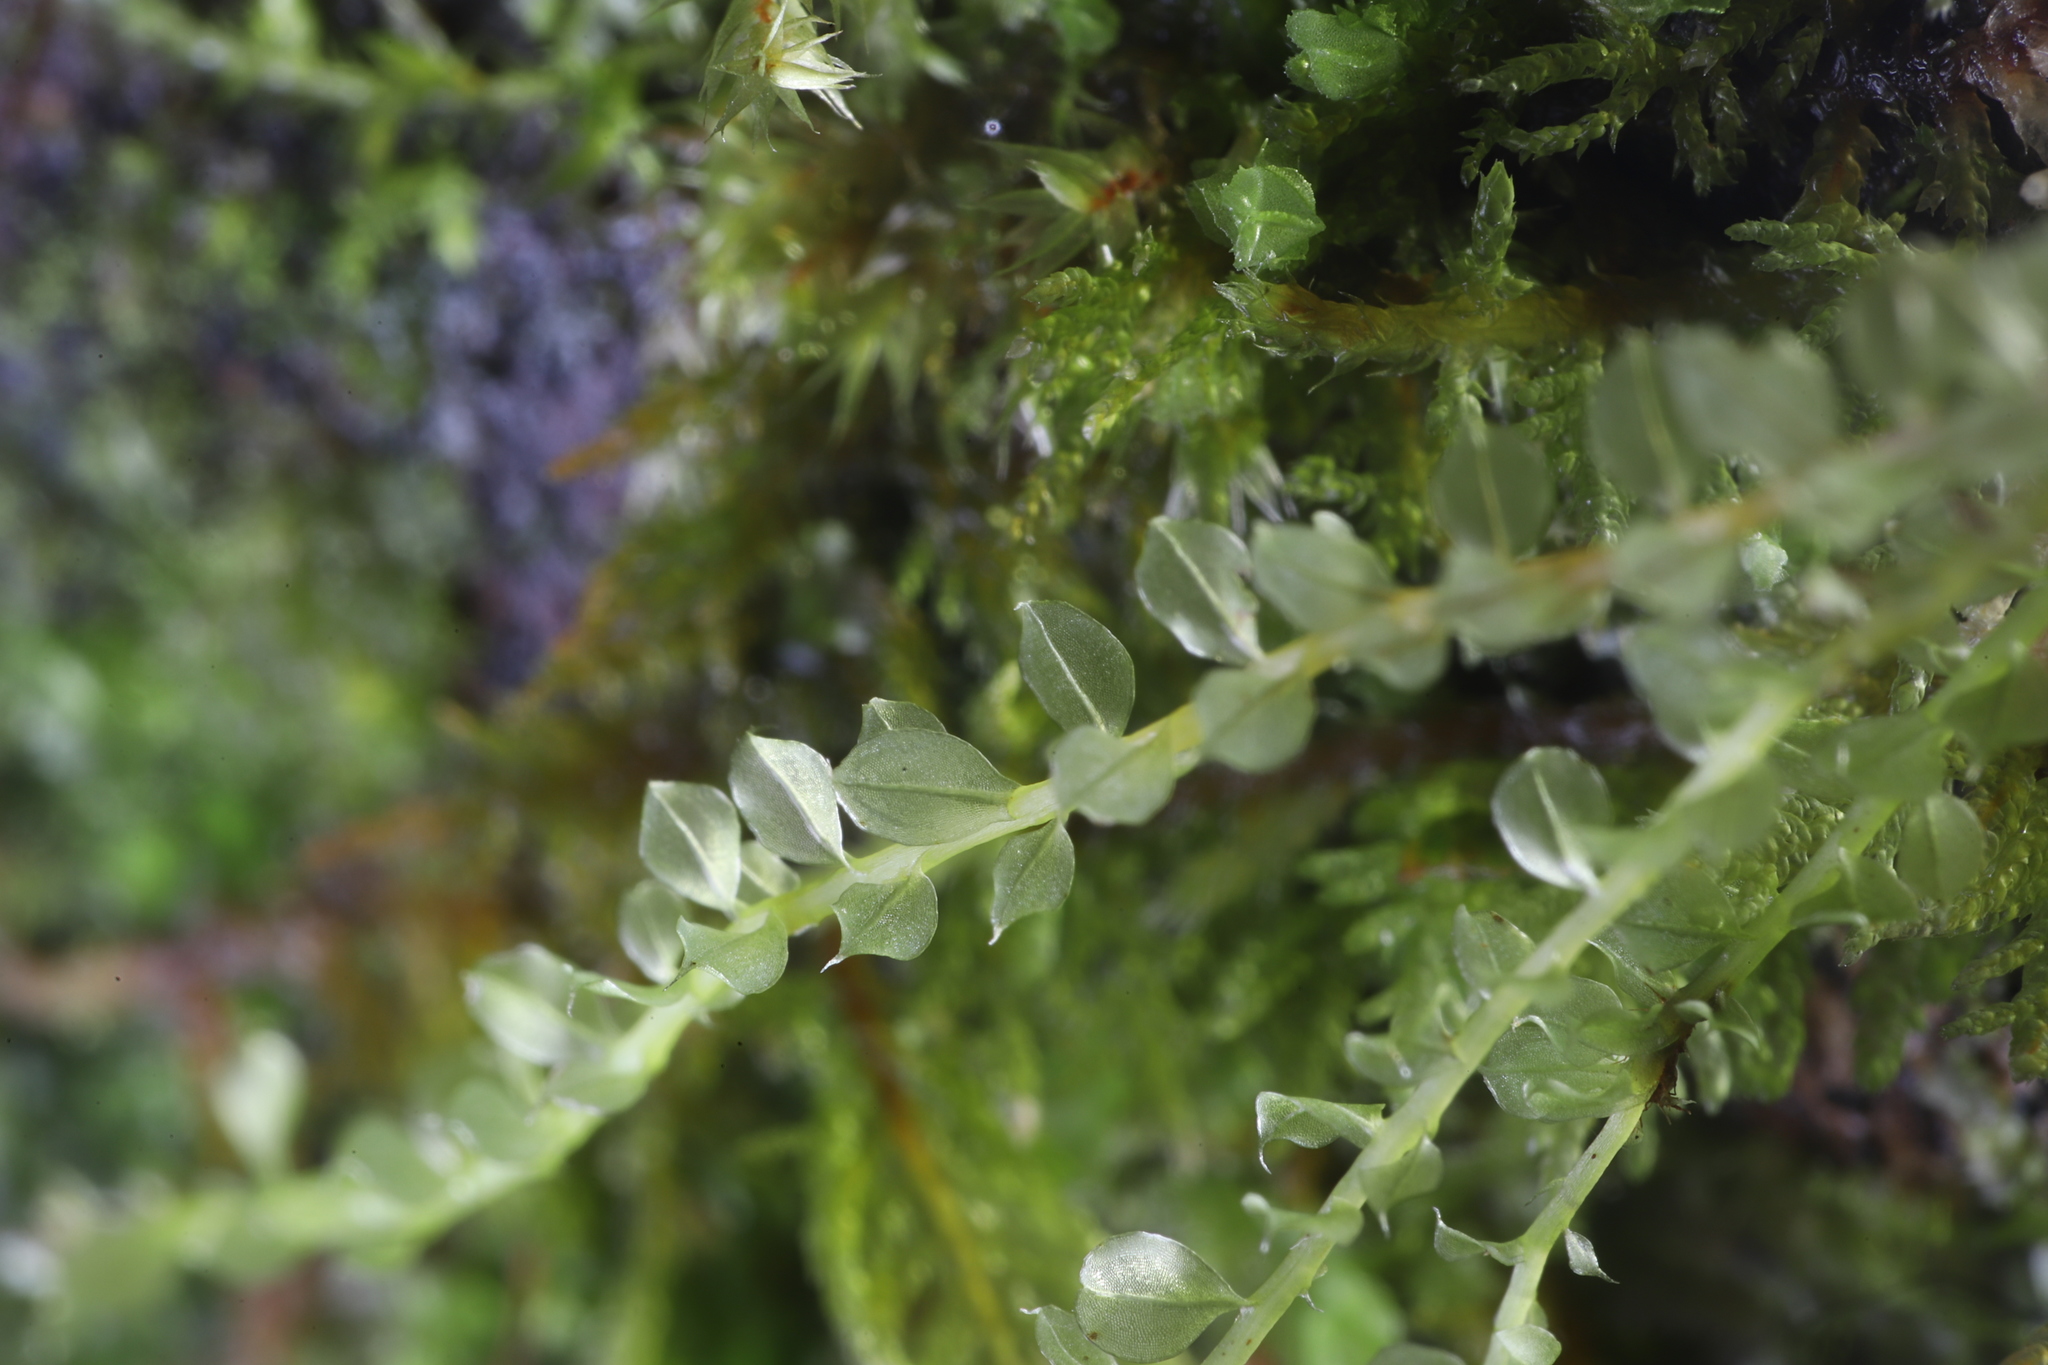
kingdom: Plantae
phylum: Bryophyta
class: Bryopsida
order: Bryales
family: Mniaceae
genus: Plagiomnium
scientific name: Plagiomnium cuspidatum
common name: Woodsy leafy moss
